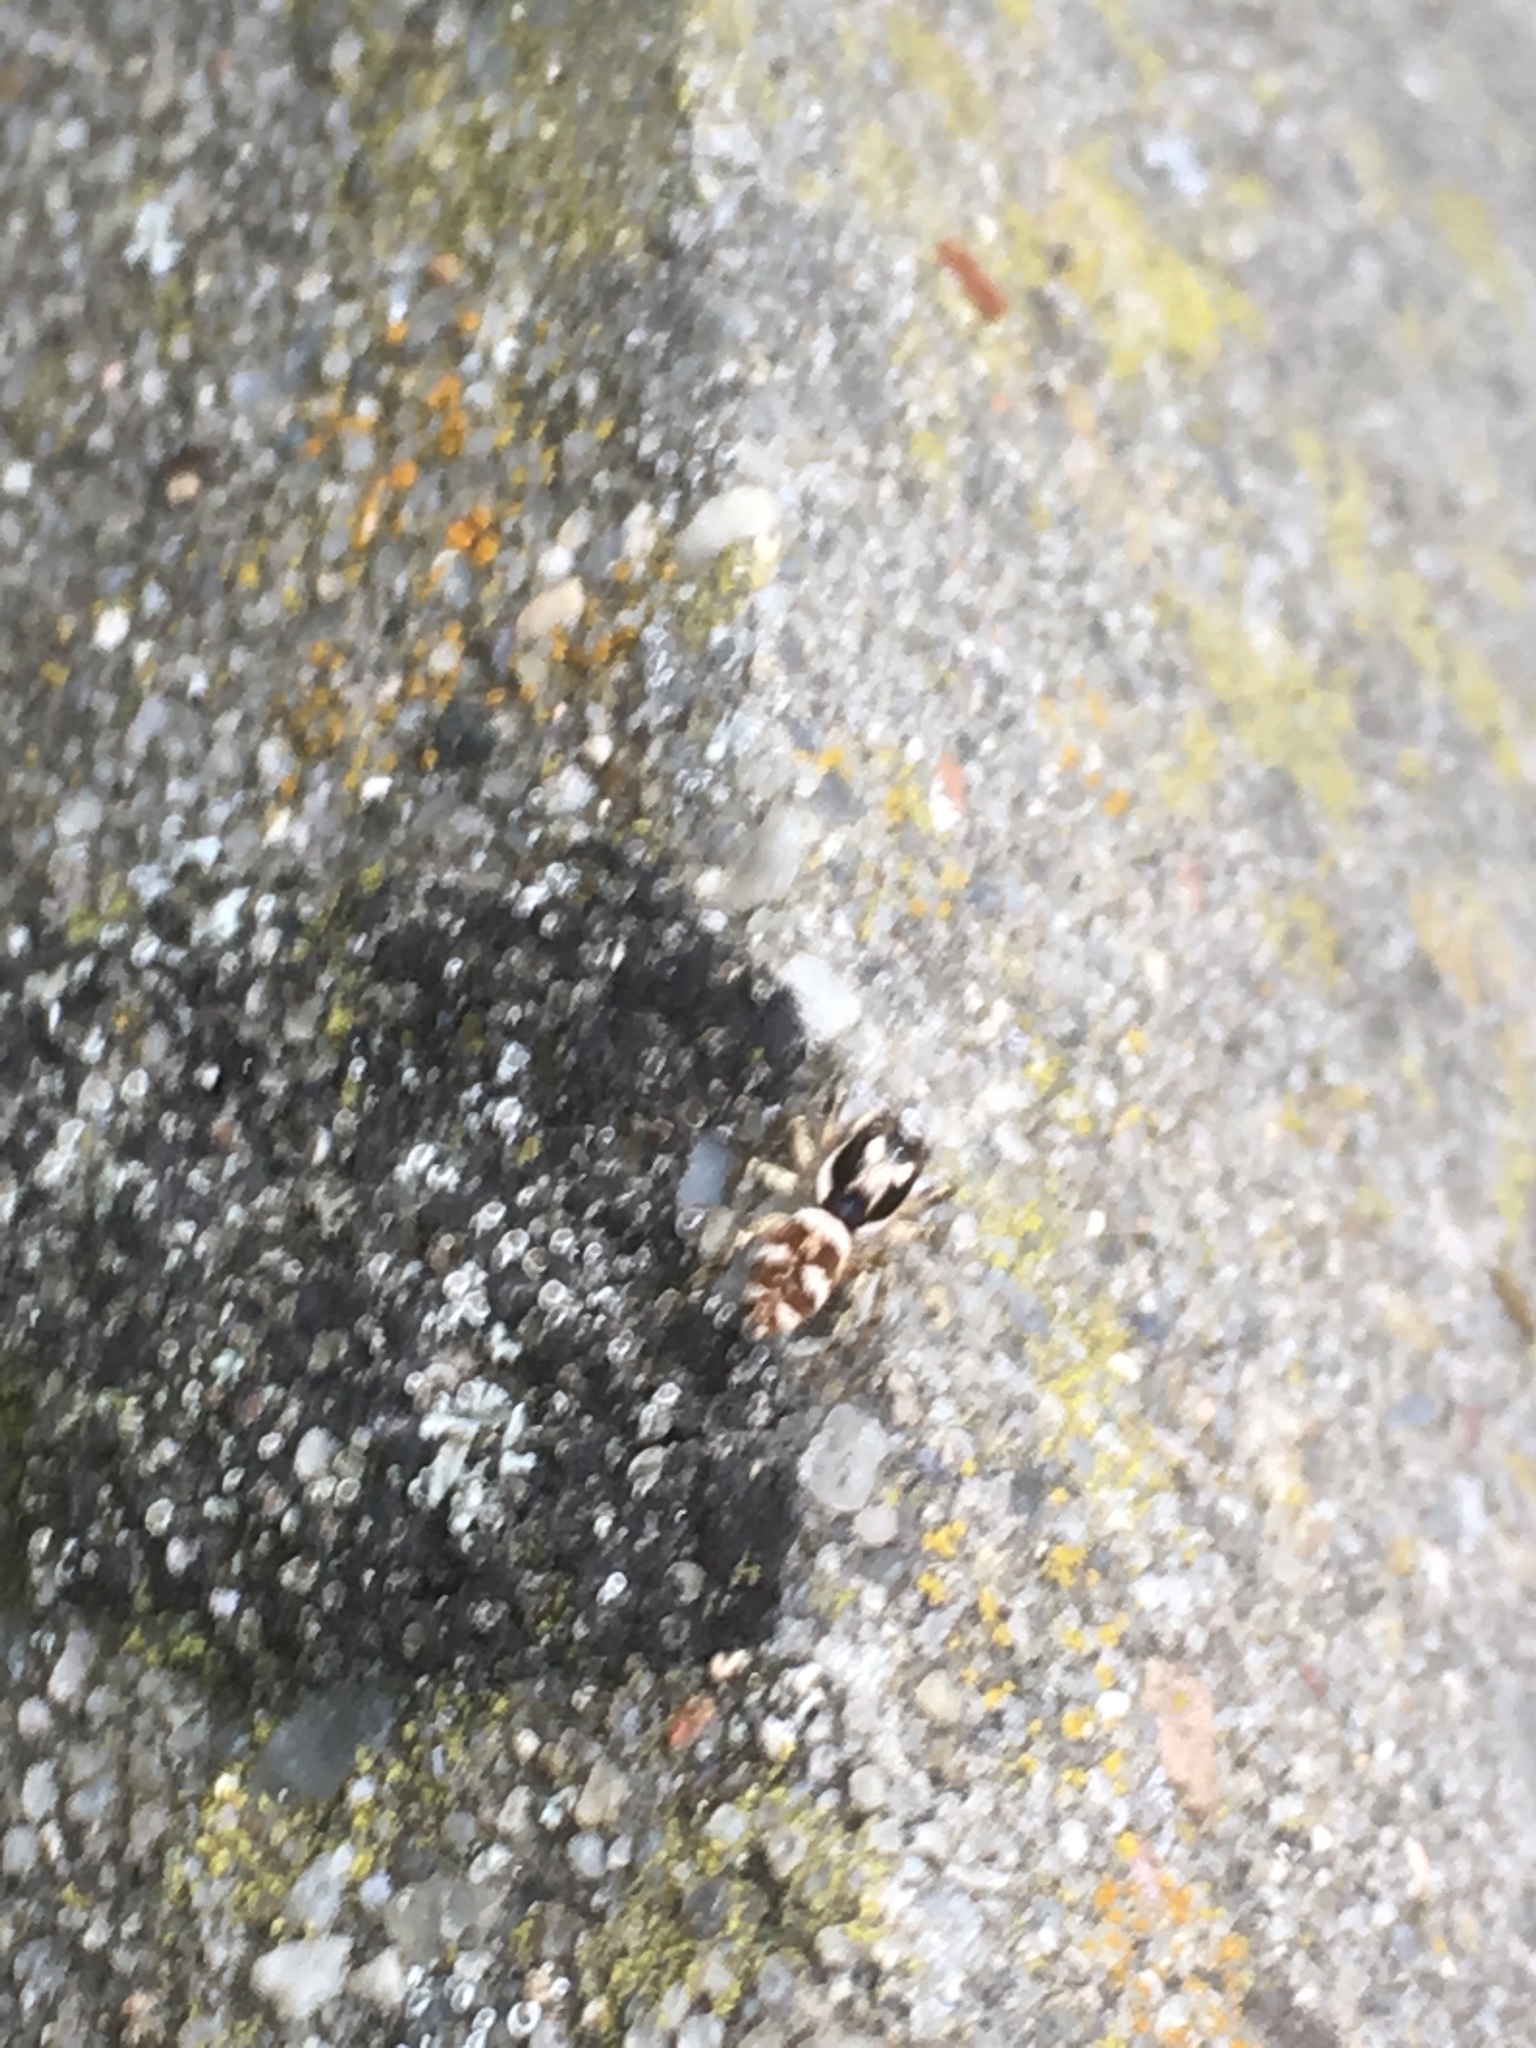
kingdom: Animalia
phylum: Arthropoda
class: Arachnida
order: Araneae
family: Salticidae
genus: Salticus
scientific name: Salticus scenicus
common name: Zebra jumper
